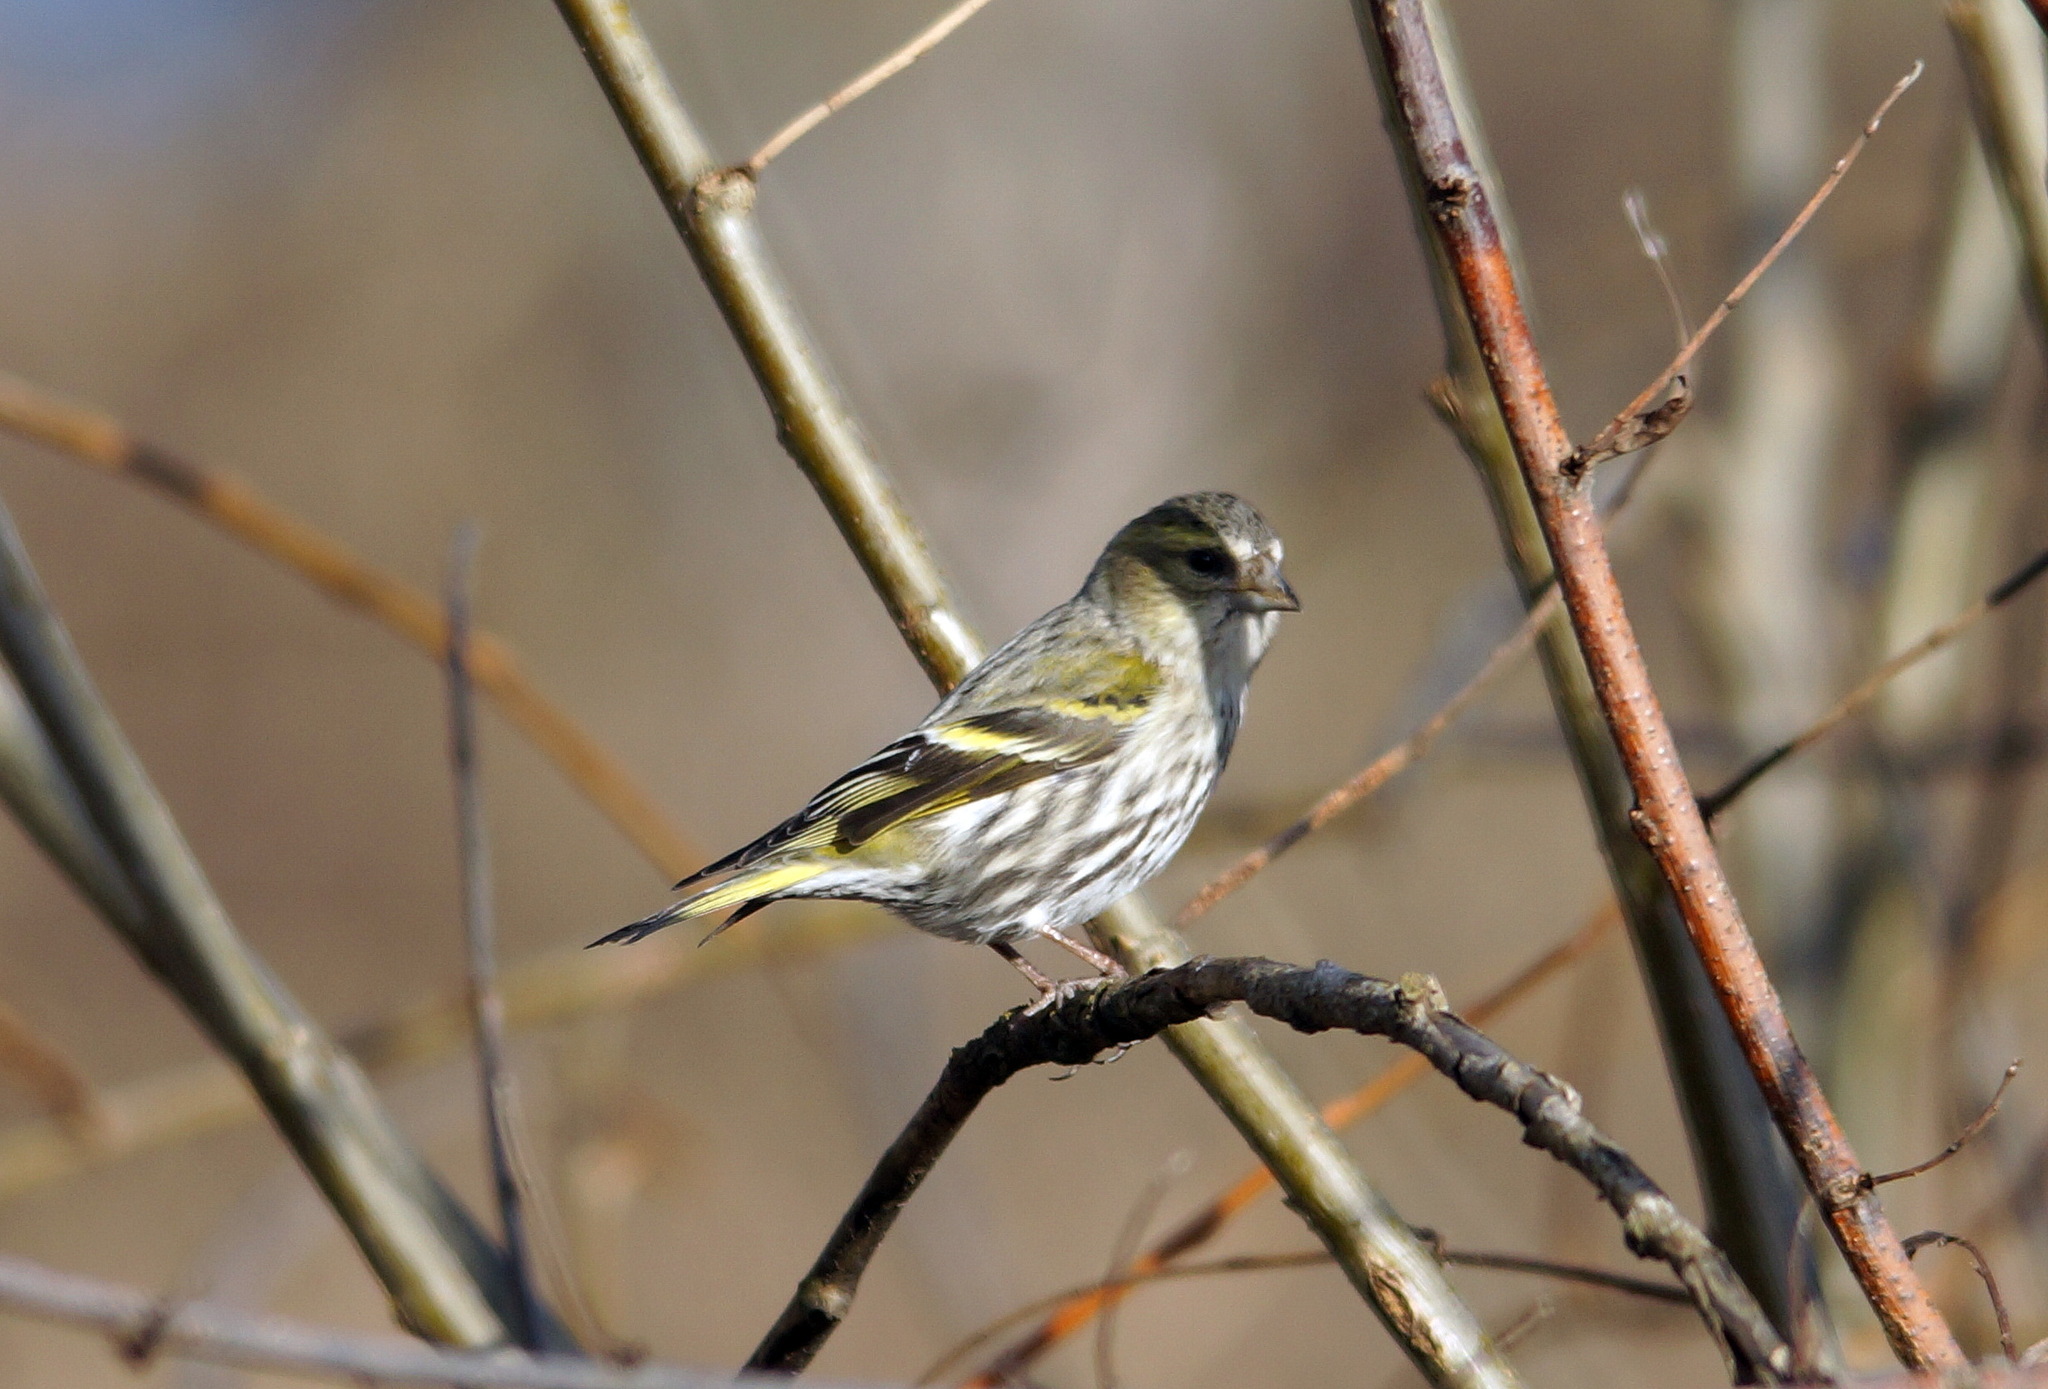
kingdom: Animalia
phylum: Chordata
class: Aves
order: Passeriformes
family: Fringillidae
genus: Spinus
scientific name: Spinus spinus
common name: Eurasian siskin
